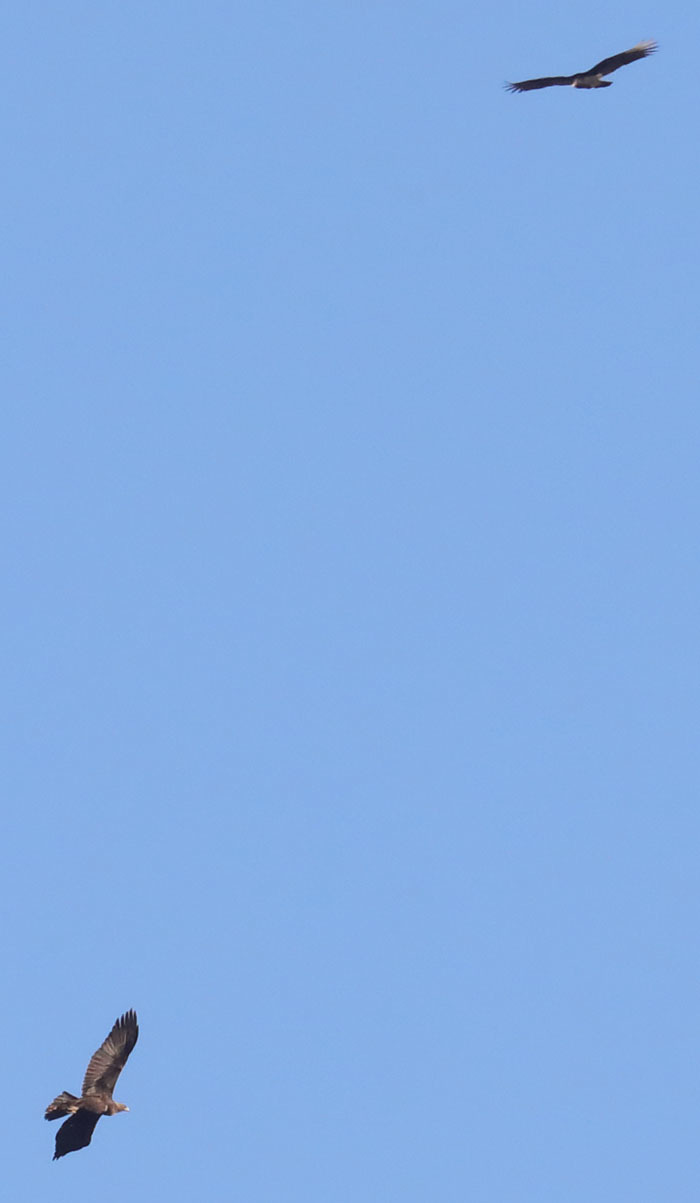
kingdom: Animalia
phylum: Chordata
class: Aves
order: Accipitriformes
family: Accipitridae
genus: Aquila
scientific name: Aquila chrysaetos
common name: Golden eagle
